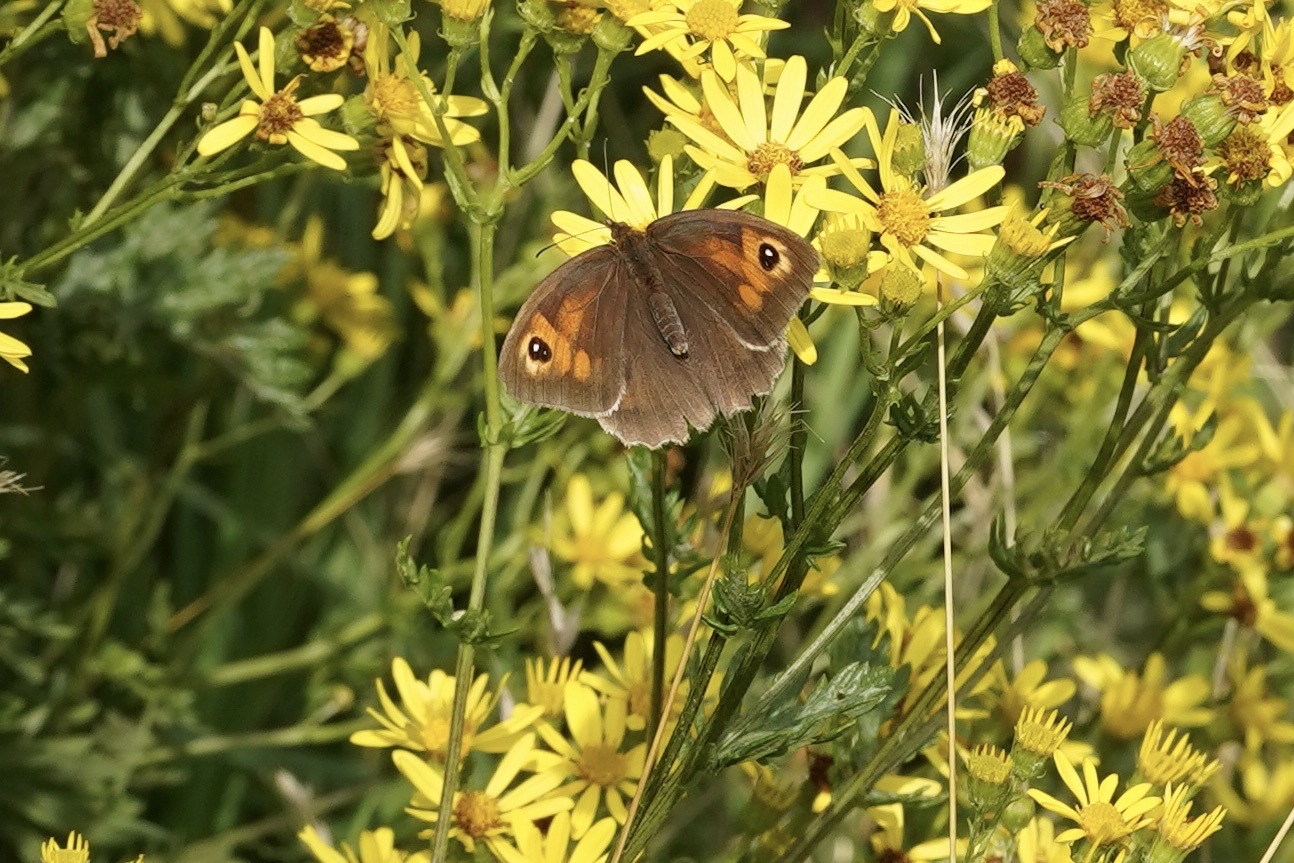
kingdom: Animalia
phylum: Arthropoda
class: Insecta
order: Lepidoptera
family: Nymphalidae
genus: Maniola
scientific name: Maniola jurtina
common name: Meadow brown
